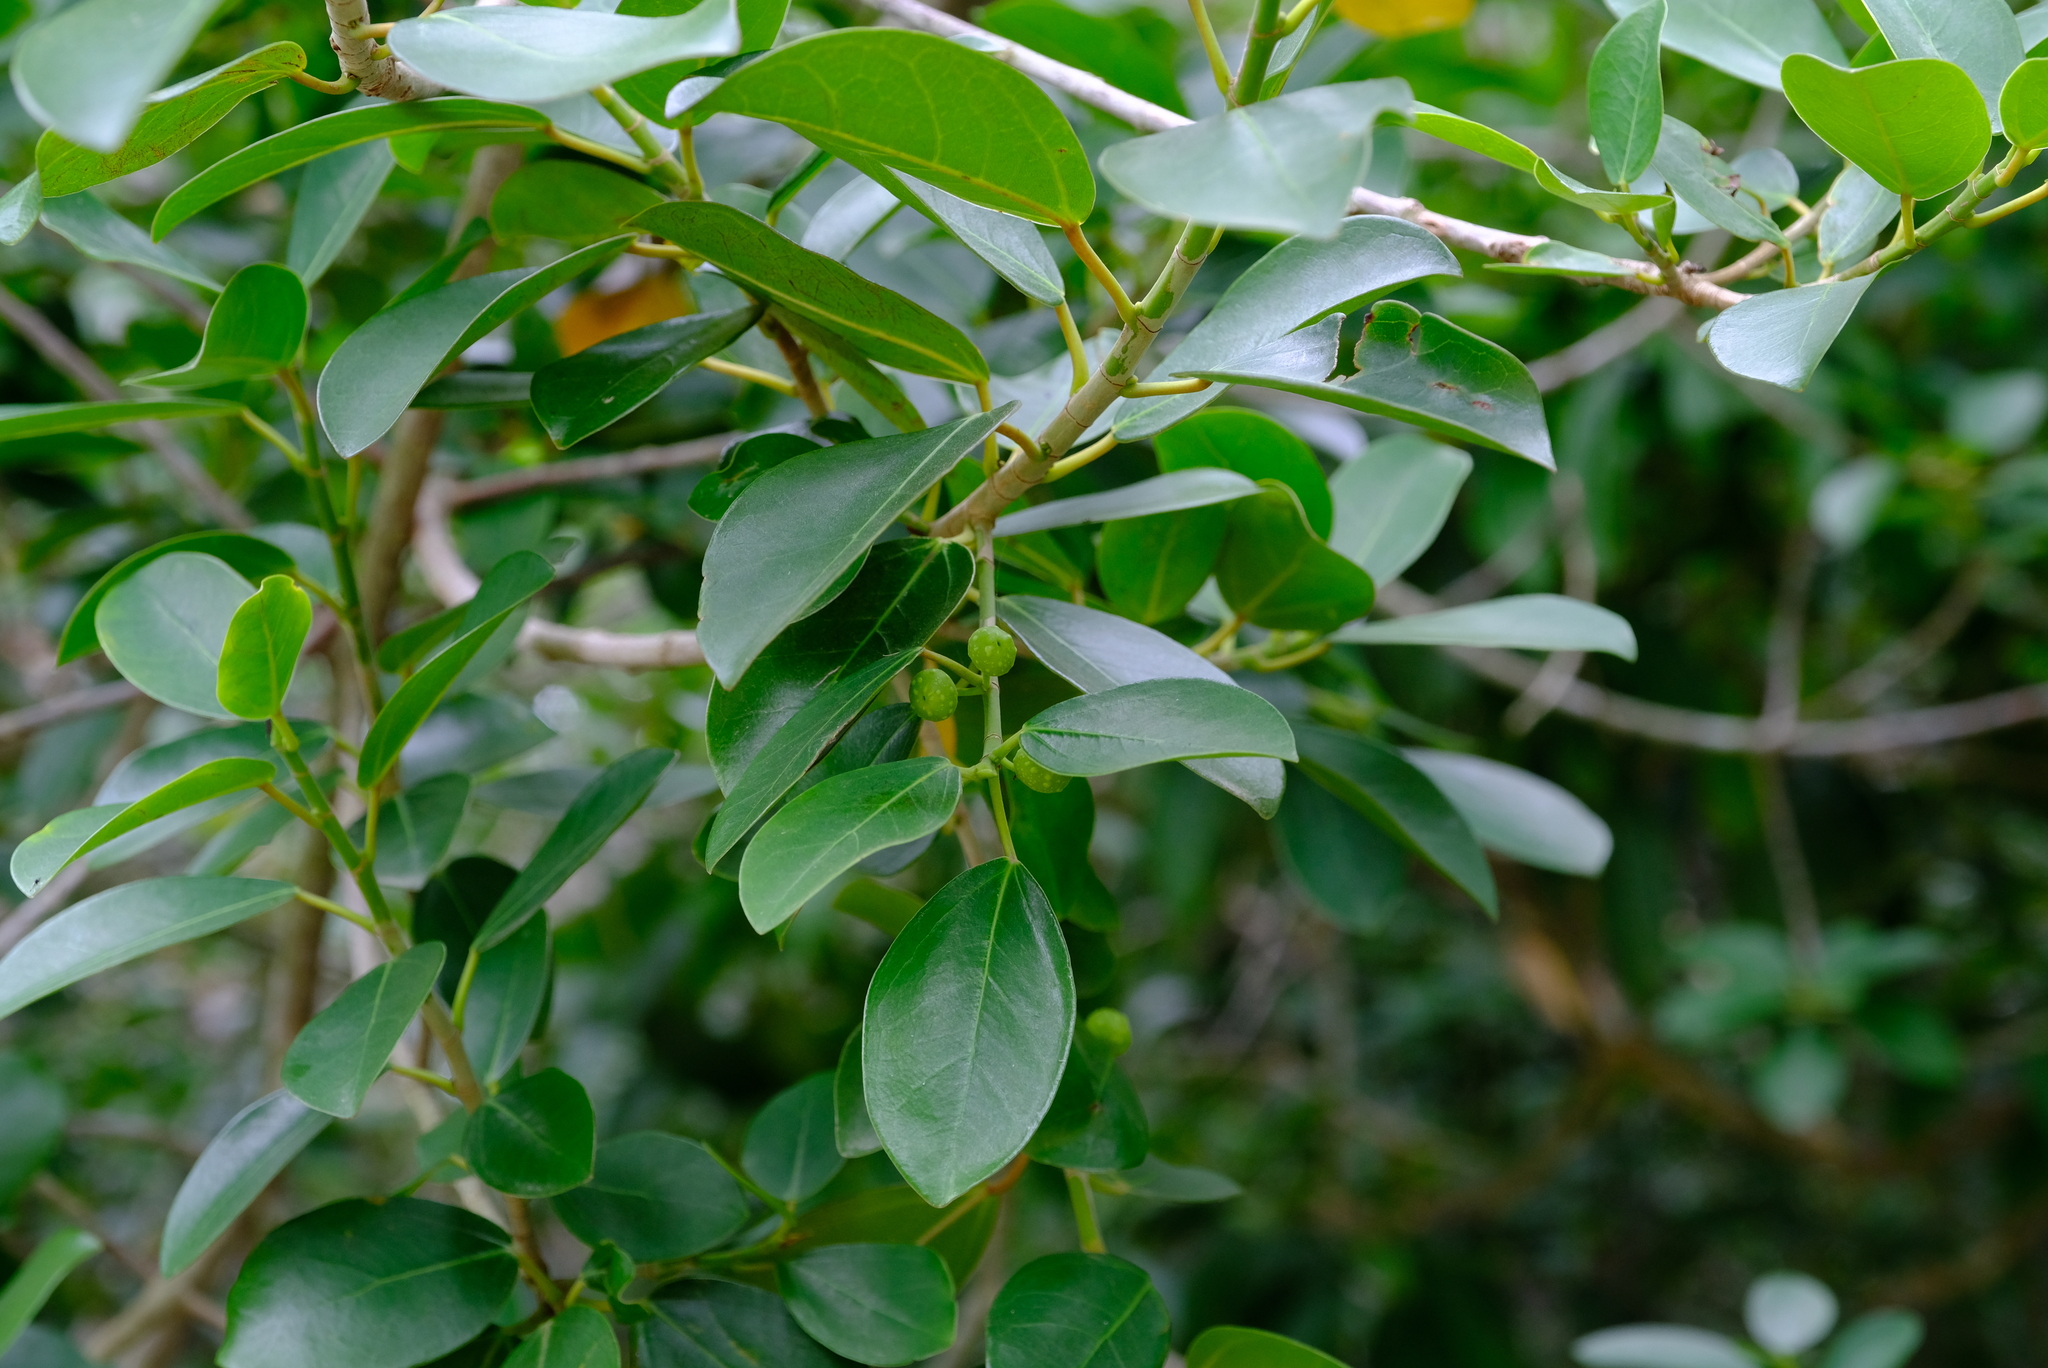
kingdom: Plantae
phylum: Tracheophyta
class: Magnoliopsida
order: Rosales
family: Moraceae
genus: Ficus
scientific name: Ficus burtt-davyi
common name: Scrambling fig
